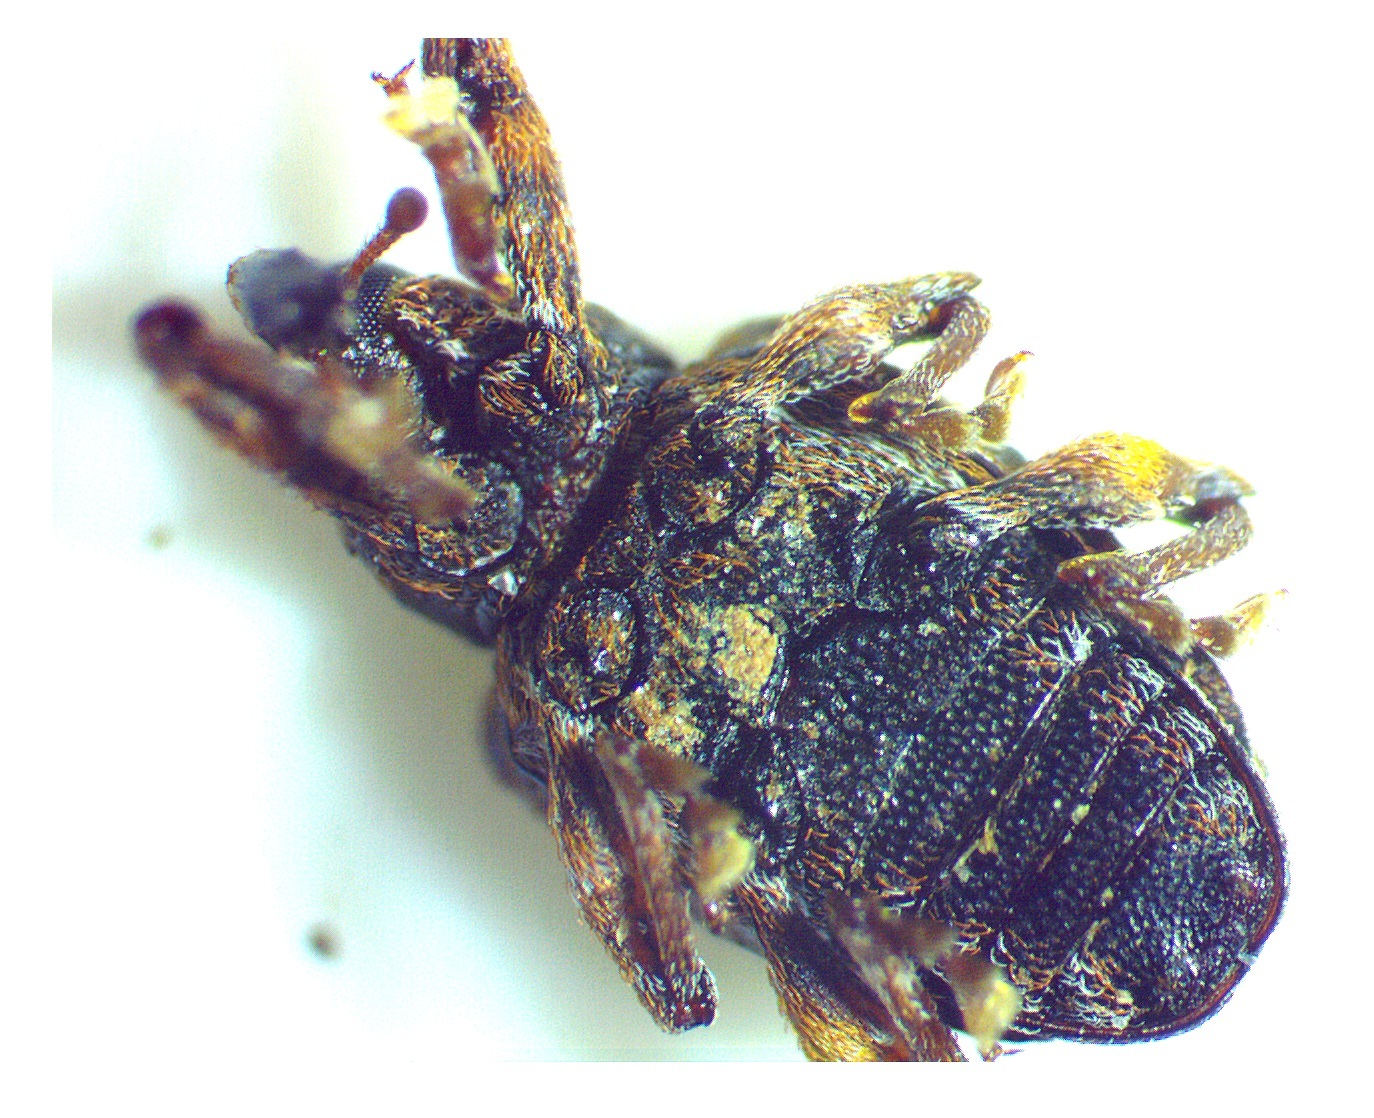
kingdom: Animalia
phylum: Arthropoda
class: Insecta
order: Coleoptera
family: Curculionidae
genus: Conotrachelus
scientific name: Conotrachelus nenuphar
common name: Plum curculio
